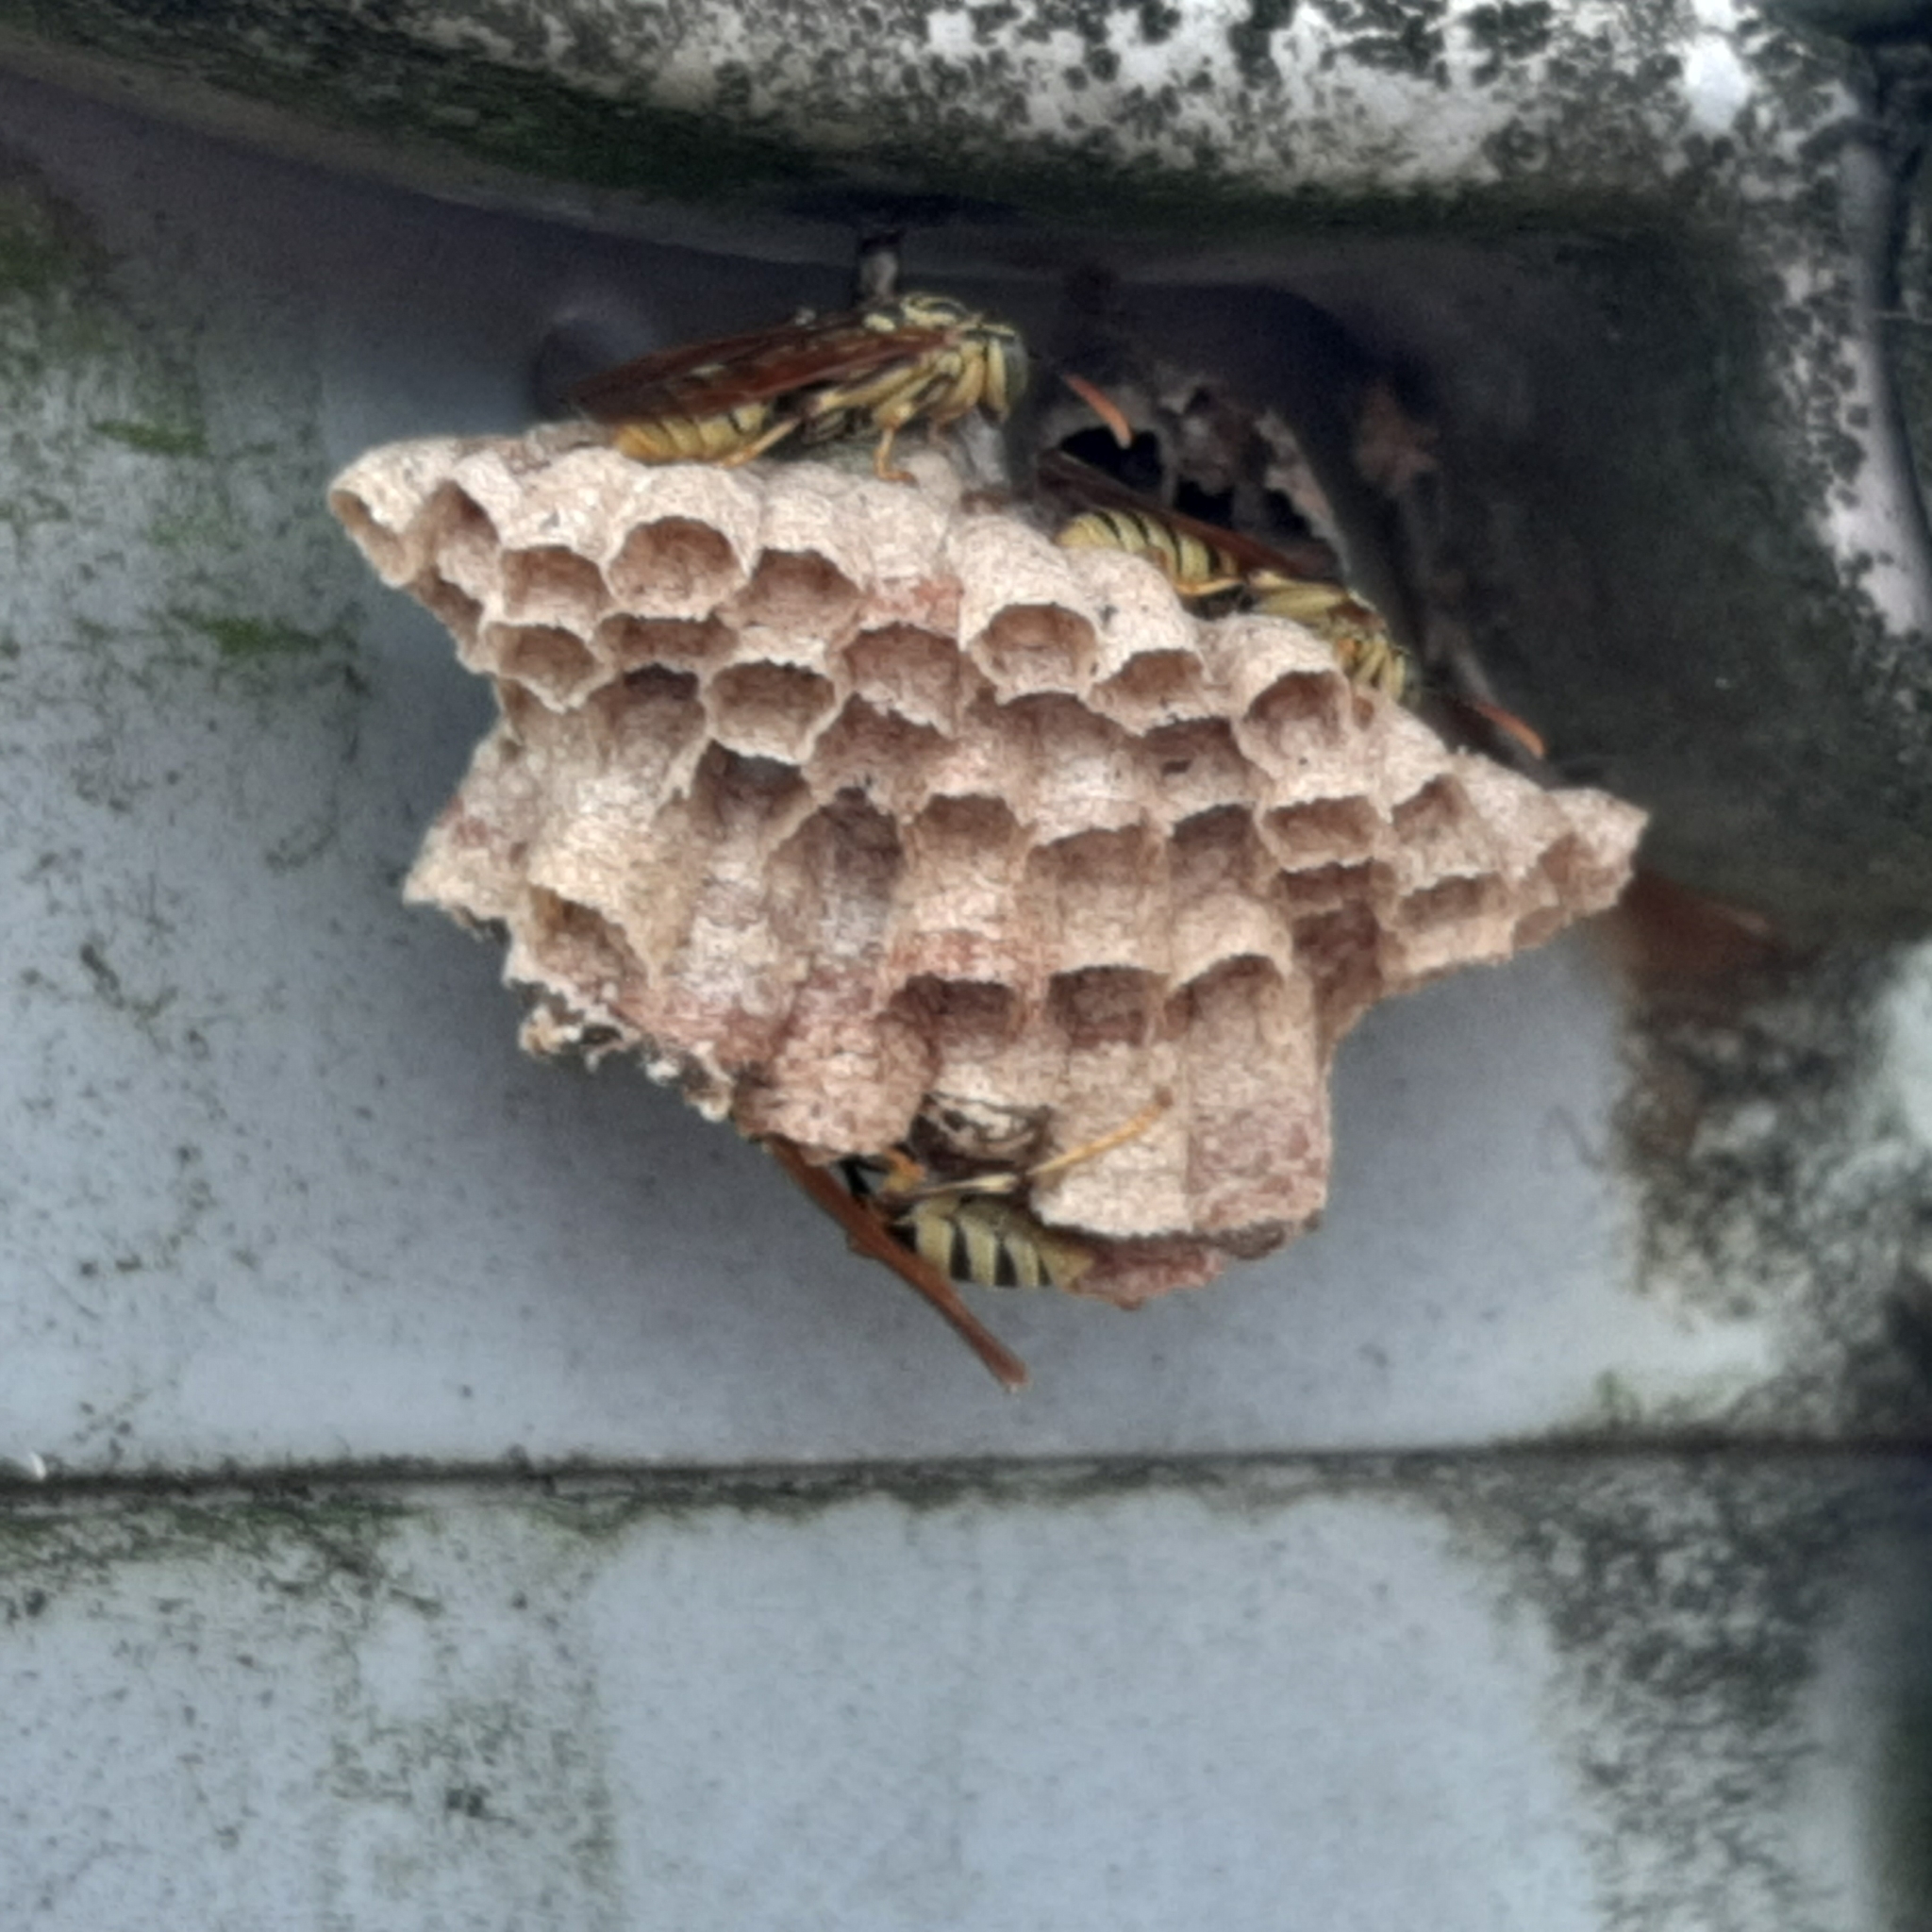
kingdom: Animalia
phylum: Arthropoda
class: Insecta
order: Hymenoptera
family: Vespidae
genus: Mischocyttarus
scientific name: Mischocyttarus basimacula
